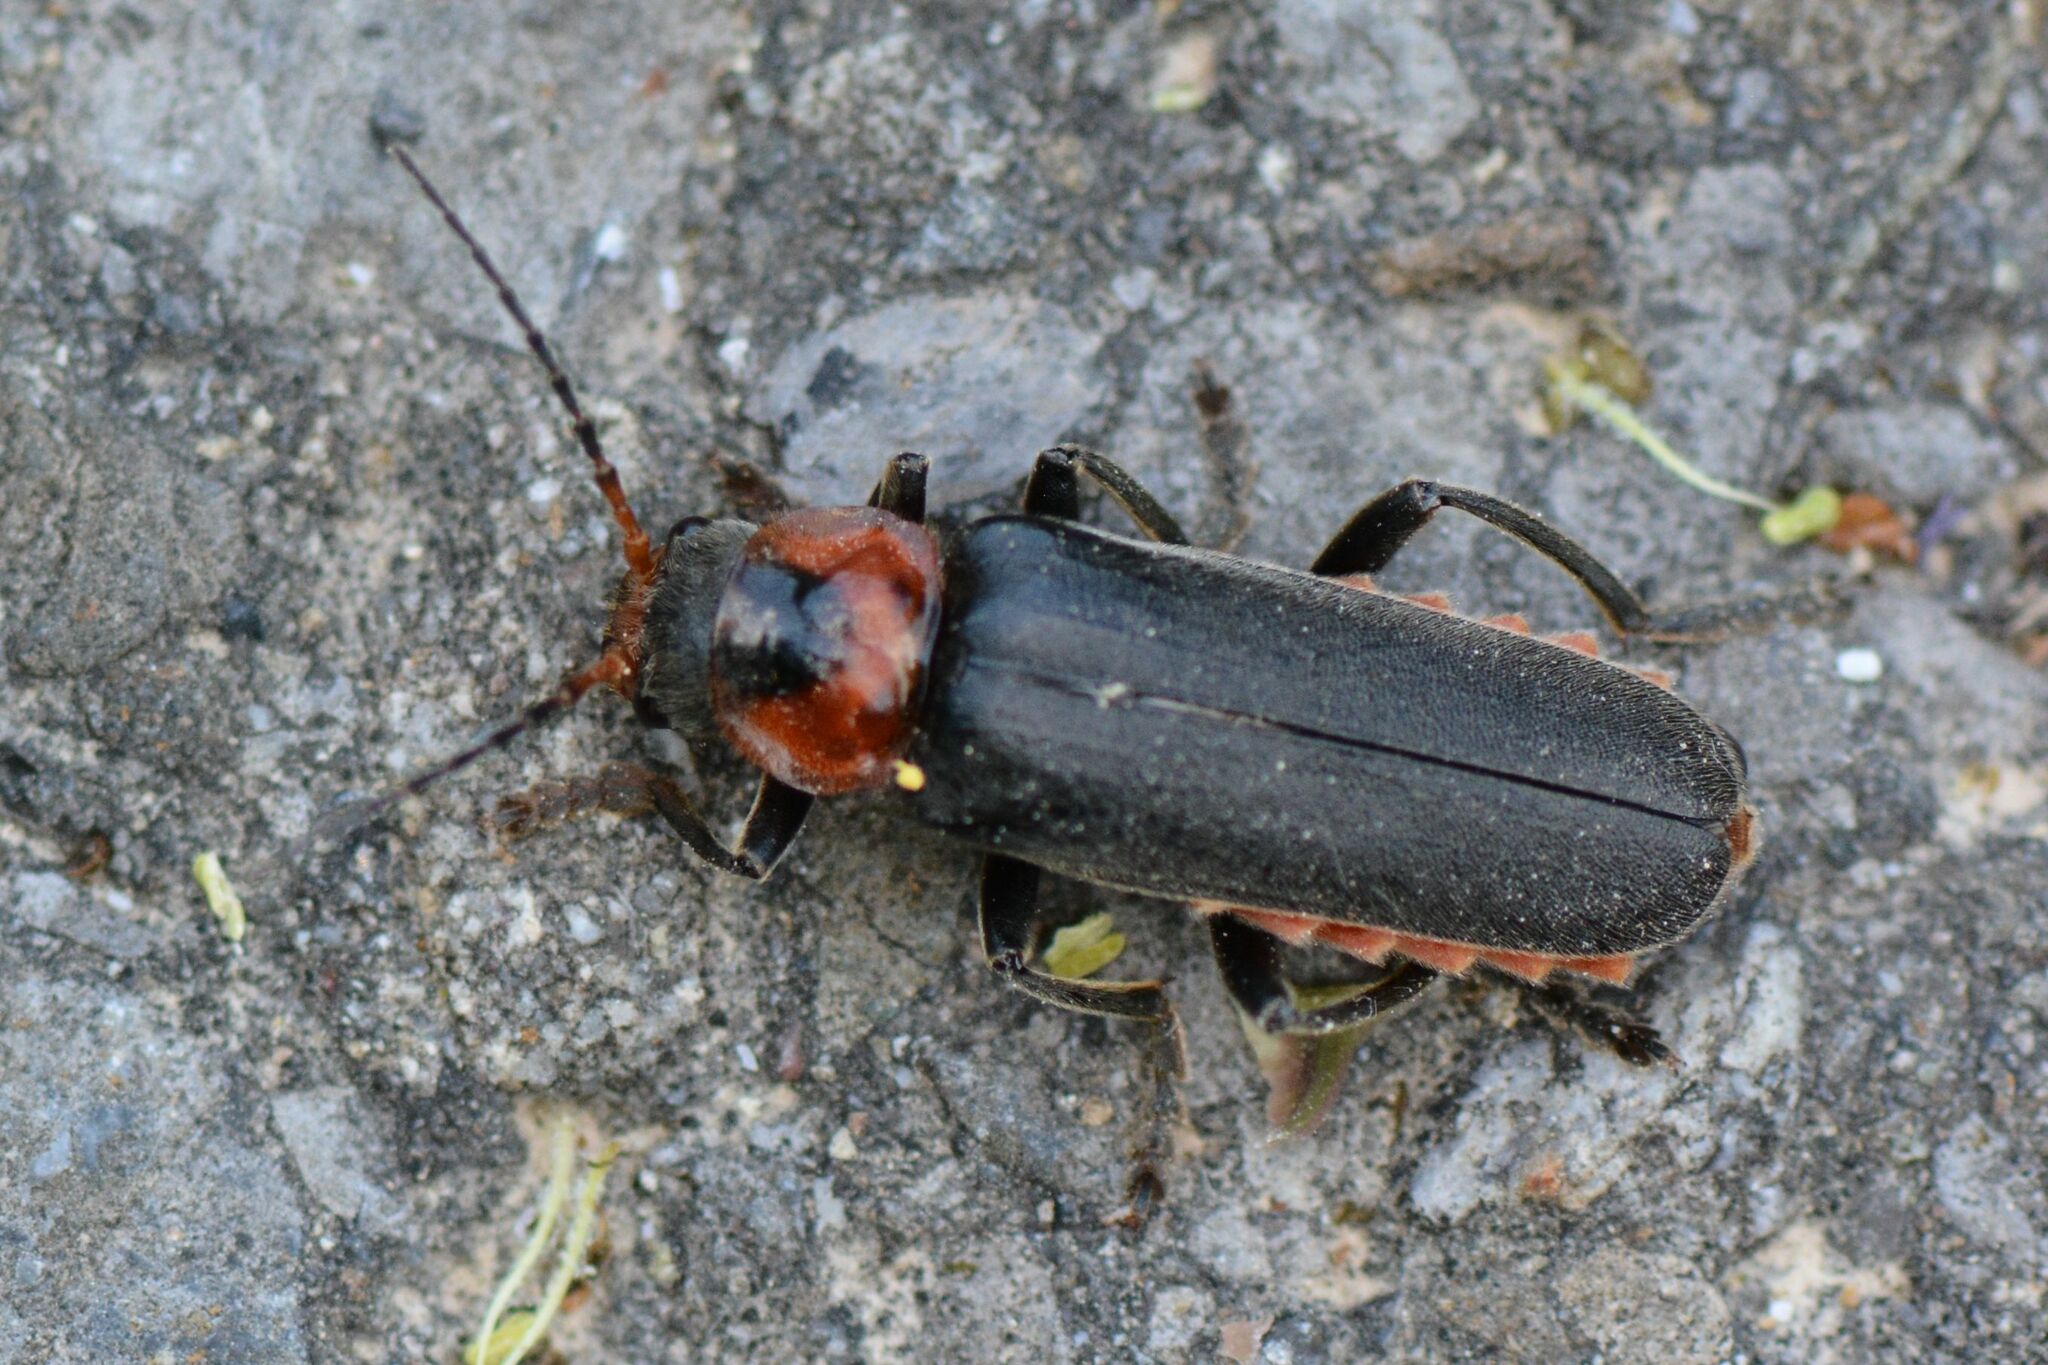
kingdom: Animalia
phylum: Arthropoda
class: Insecta
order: Coleoptera
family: Cantharidae
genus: Cantharis
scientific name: Cantharis fusca
